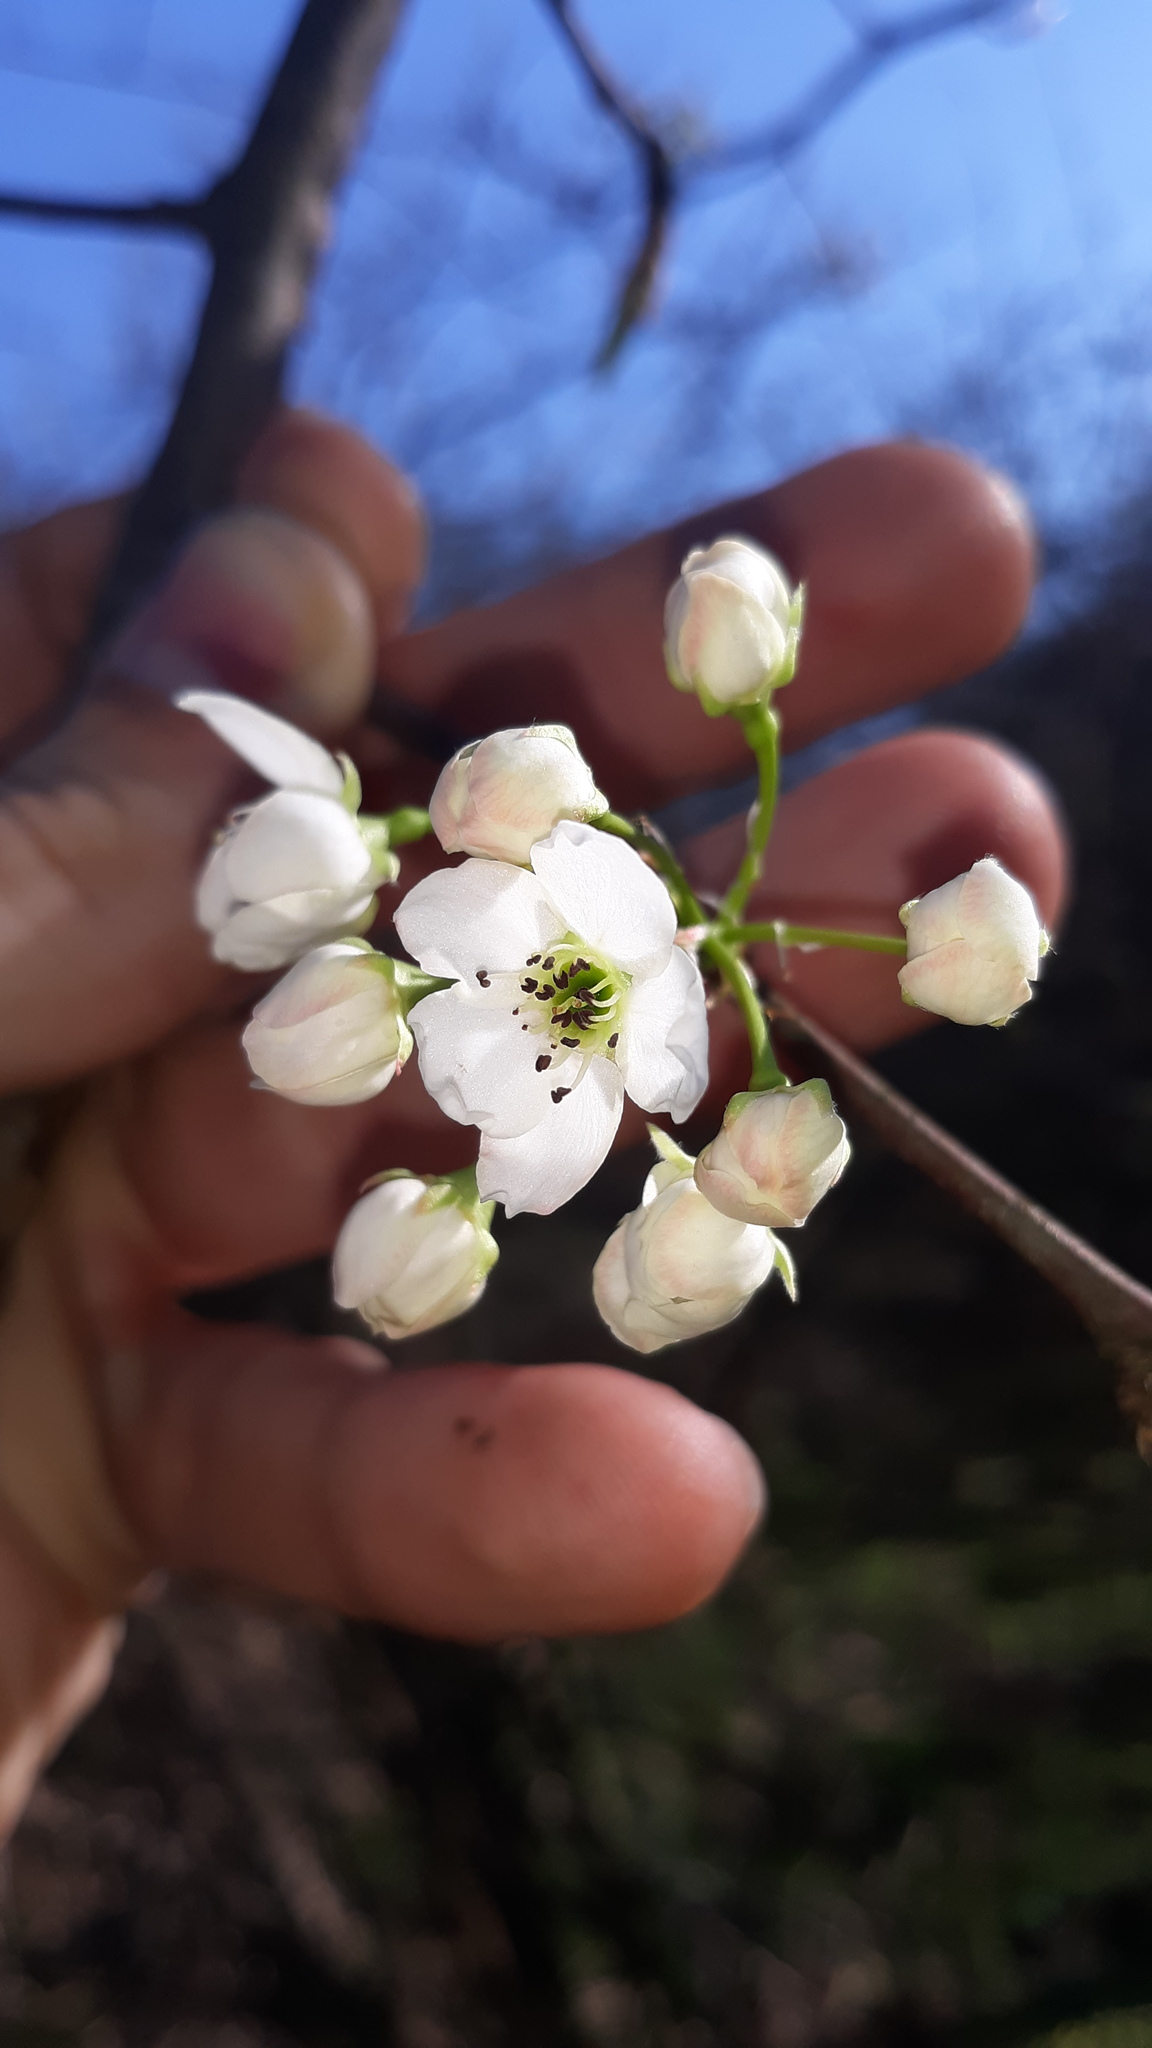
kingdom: Plantae
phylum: Tracheophyta
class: Magnoliopsida
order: Rosales
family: Rosaceae
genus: Pyrus
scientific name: Pyrus calleryana
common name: Callery pear
